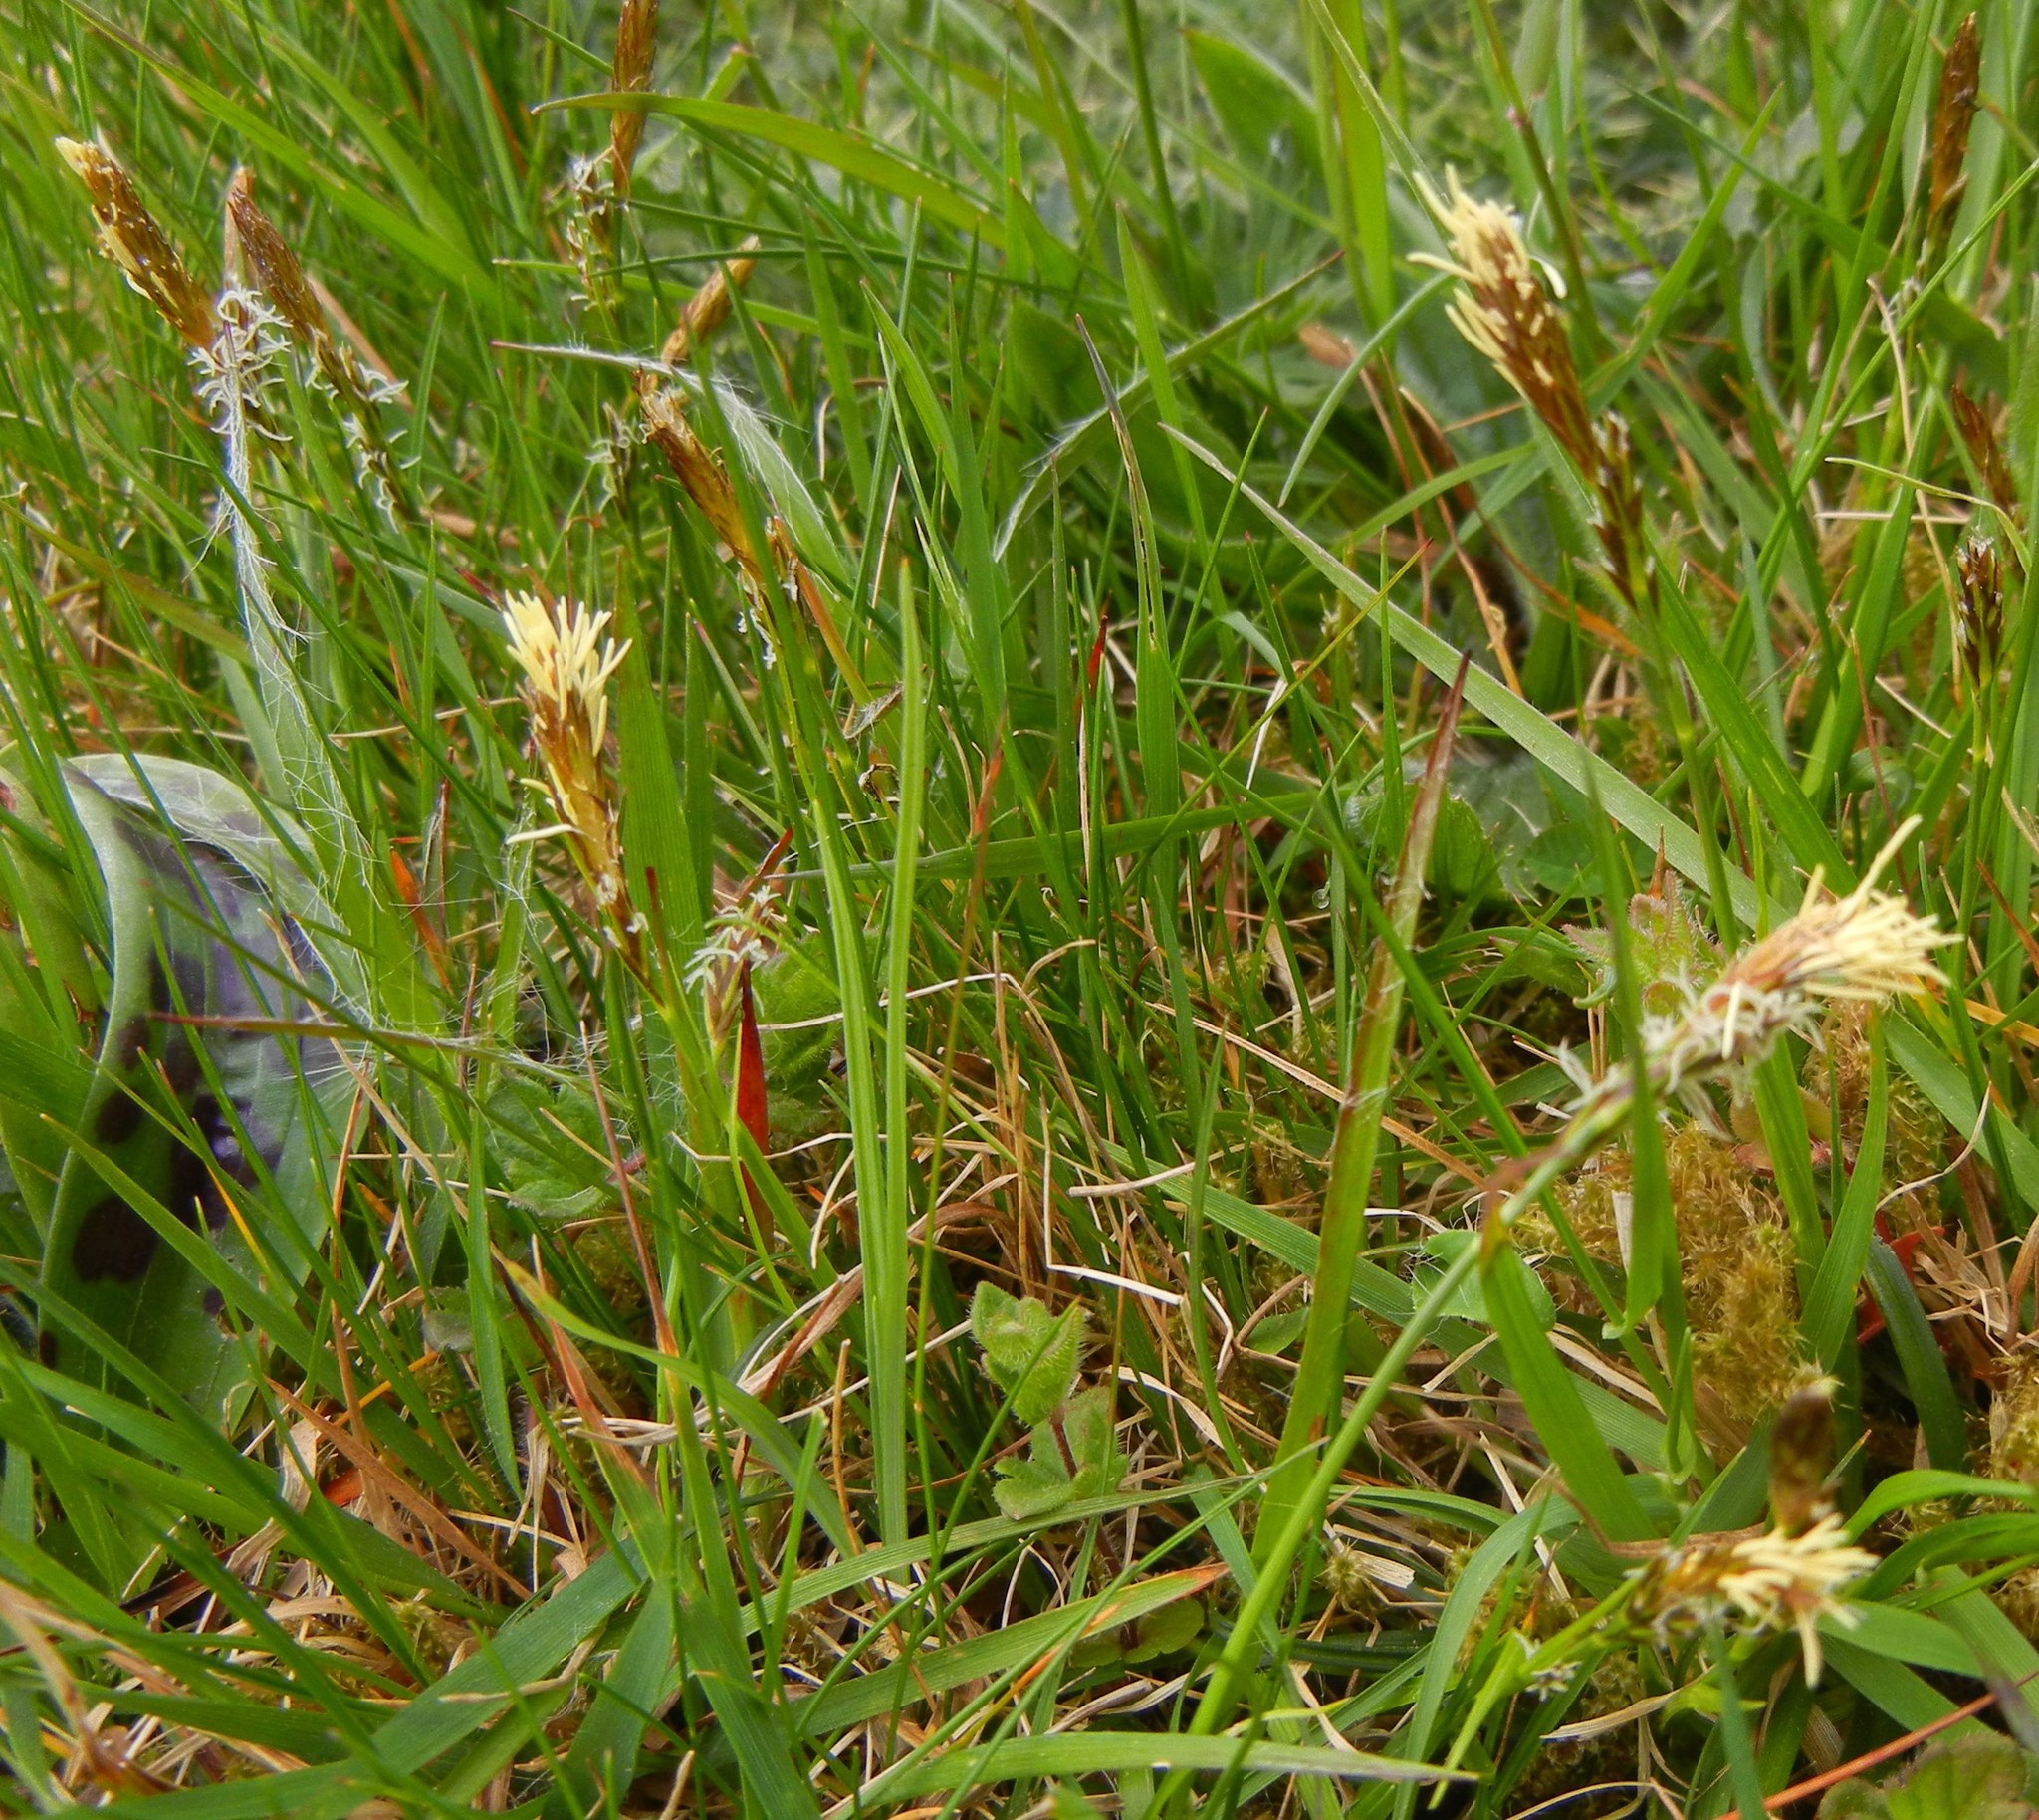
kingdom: Plantae
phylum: Tracheophyta
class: Liliopsida
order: Poales
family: Cyperaceae
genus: Carex
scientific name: Carex caryophyllea
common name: Spring sedge
